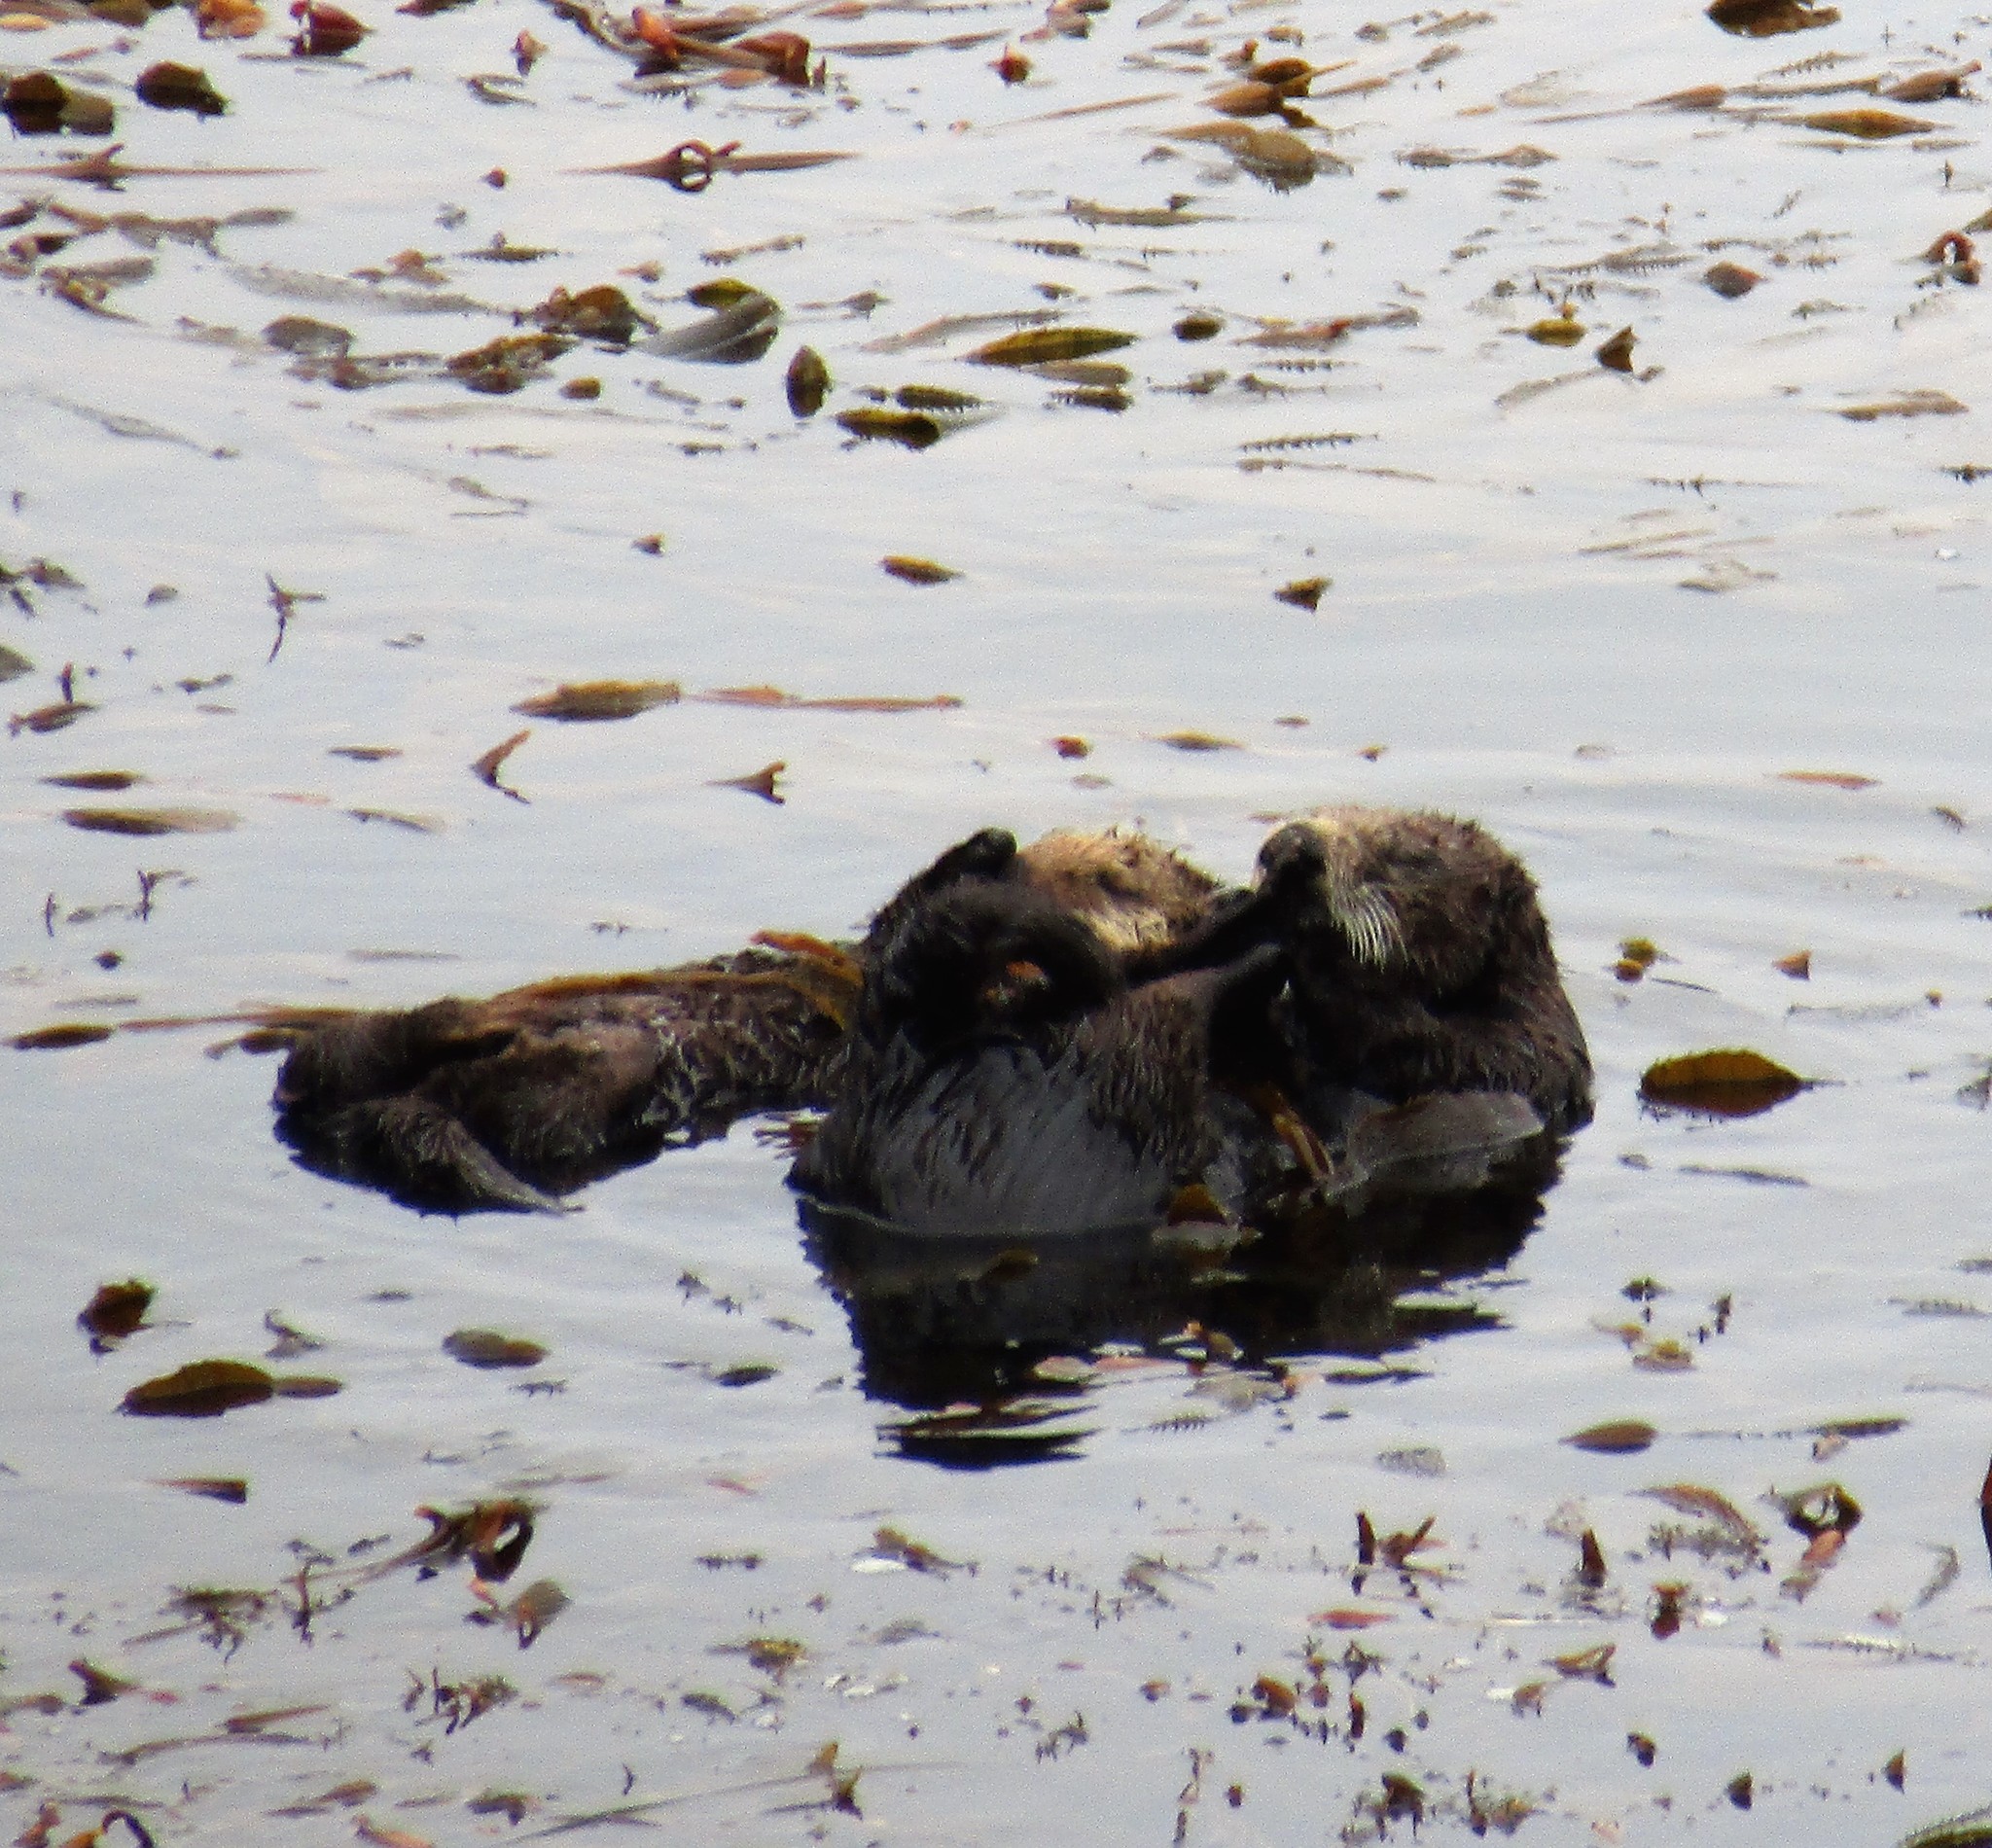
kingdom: Animalia
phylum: Chordata
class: Mammalia
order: Carnivora
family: Mustelidae
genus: Enhydra
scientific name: Enhydra lutris
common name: Sea otter
